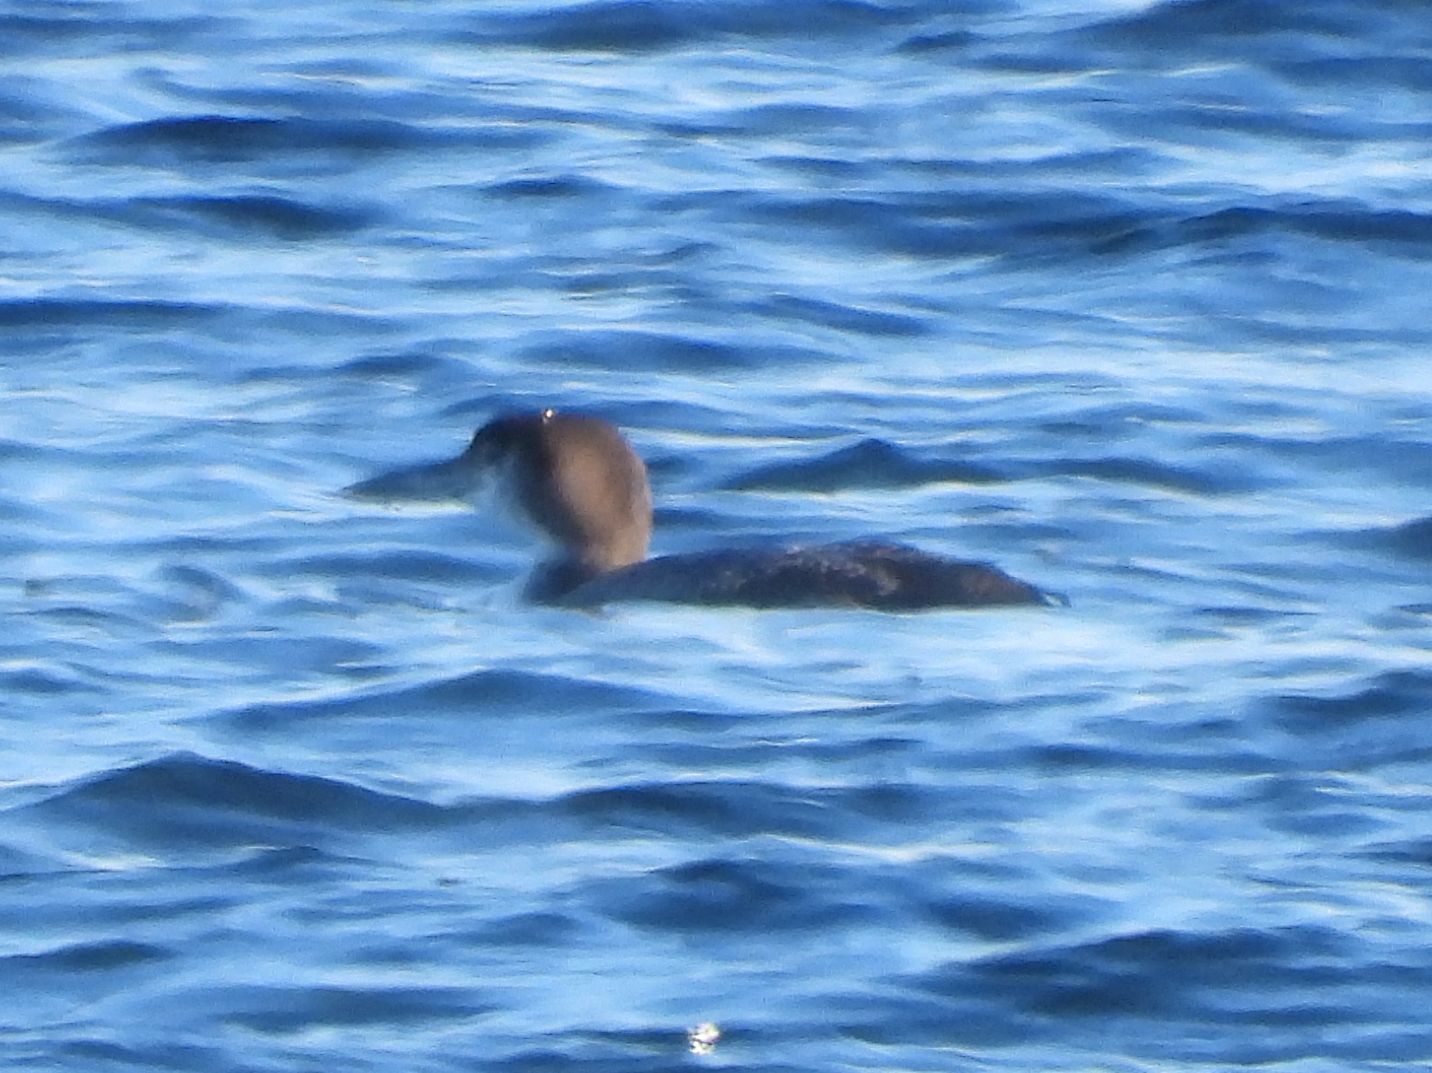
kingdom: Animalia
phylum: Chordata
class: Aves
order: Gaviiformes
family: Gaviidae
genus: Gavia
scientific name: Gavia immer
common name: Common loon
